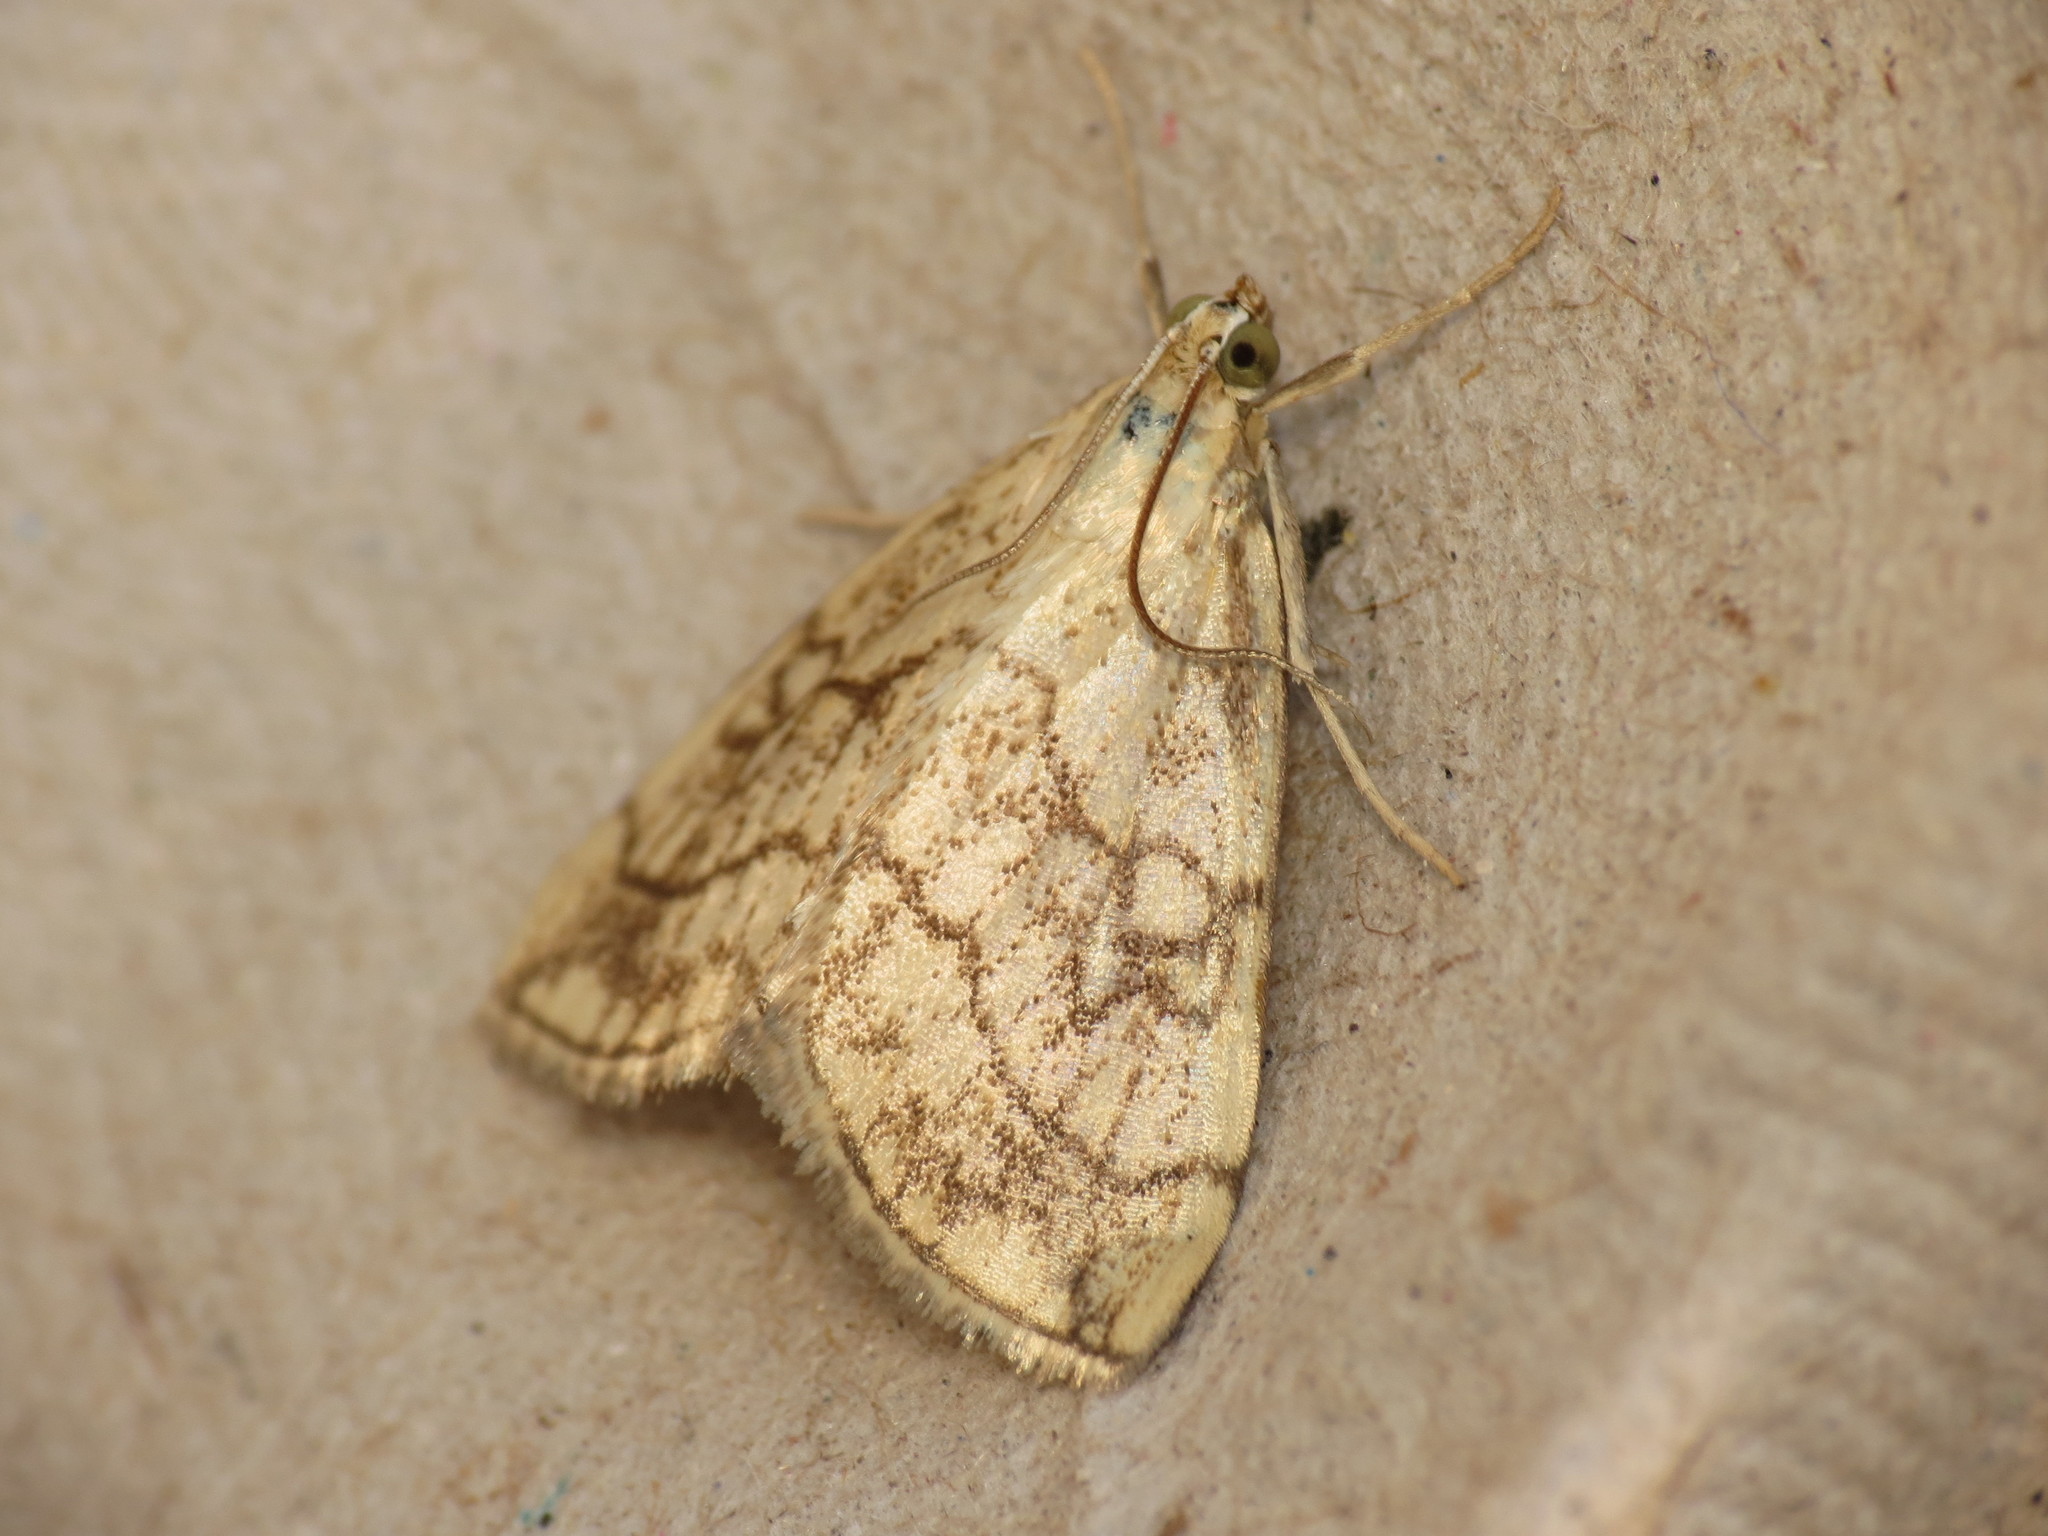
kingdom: Animalia
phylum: Arthropoda
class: Insecta
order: Lepidoptera
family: Crambidae
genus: Evergestis
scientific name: Evergestis pallidata
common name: Chequered pearl
